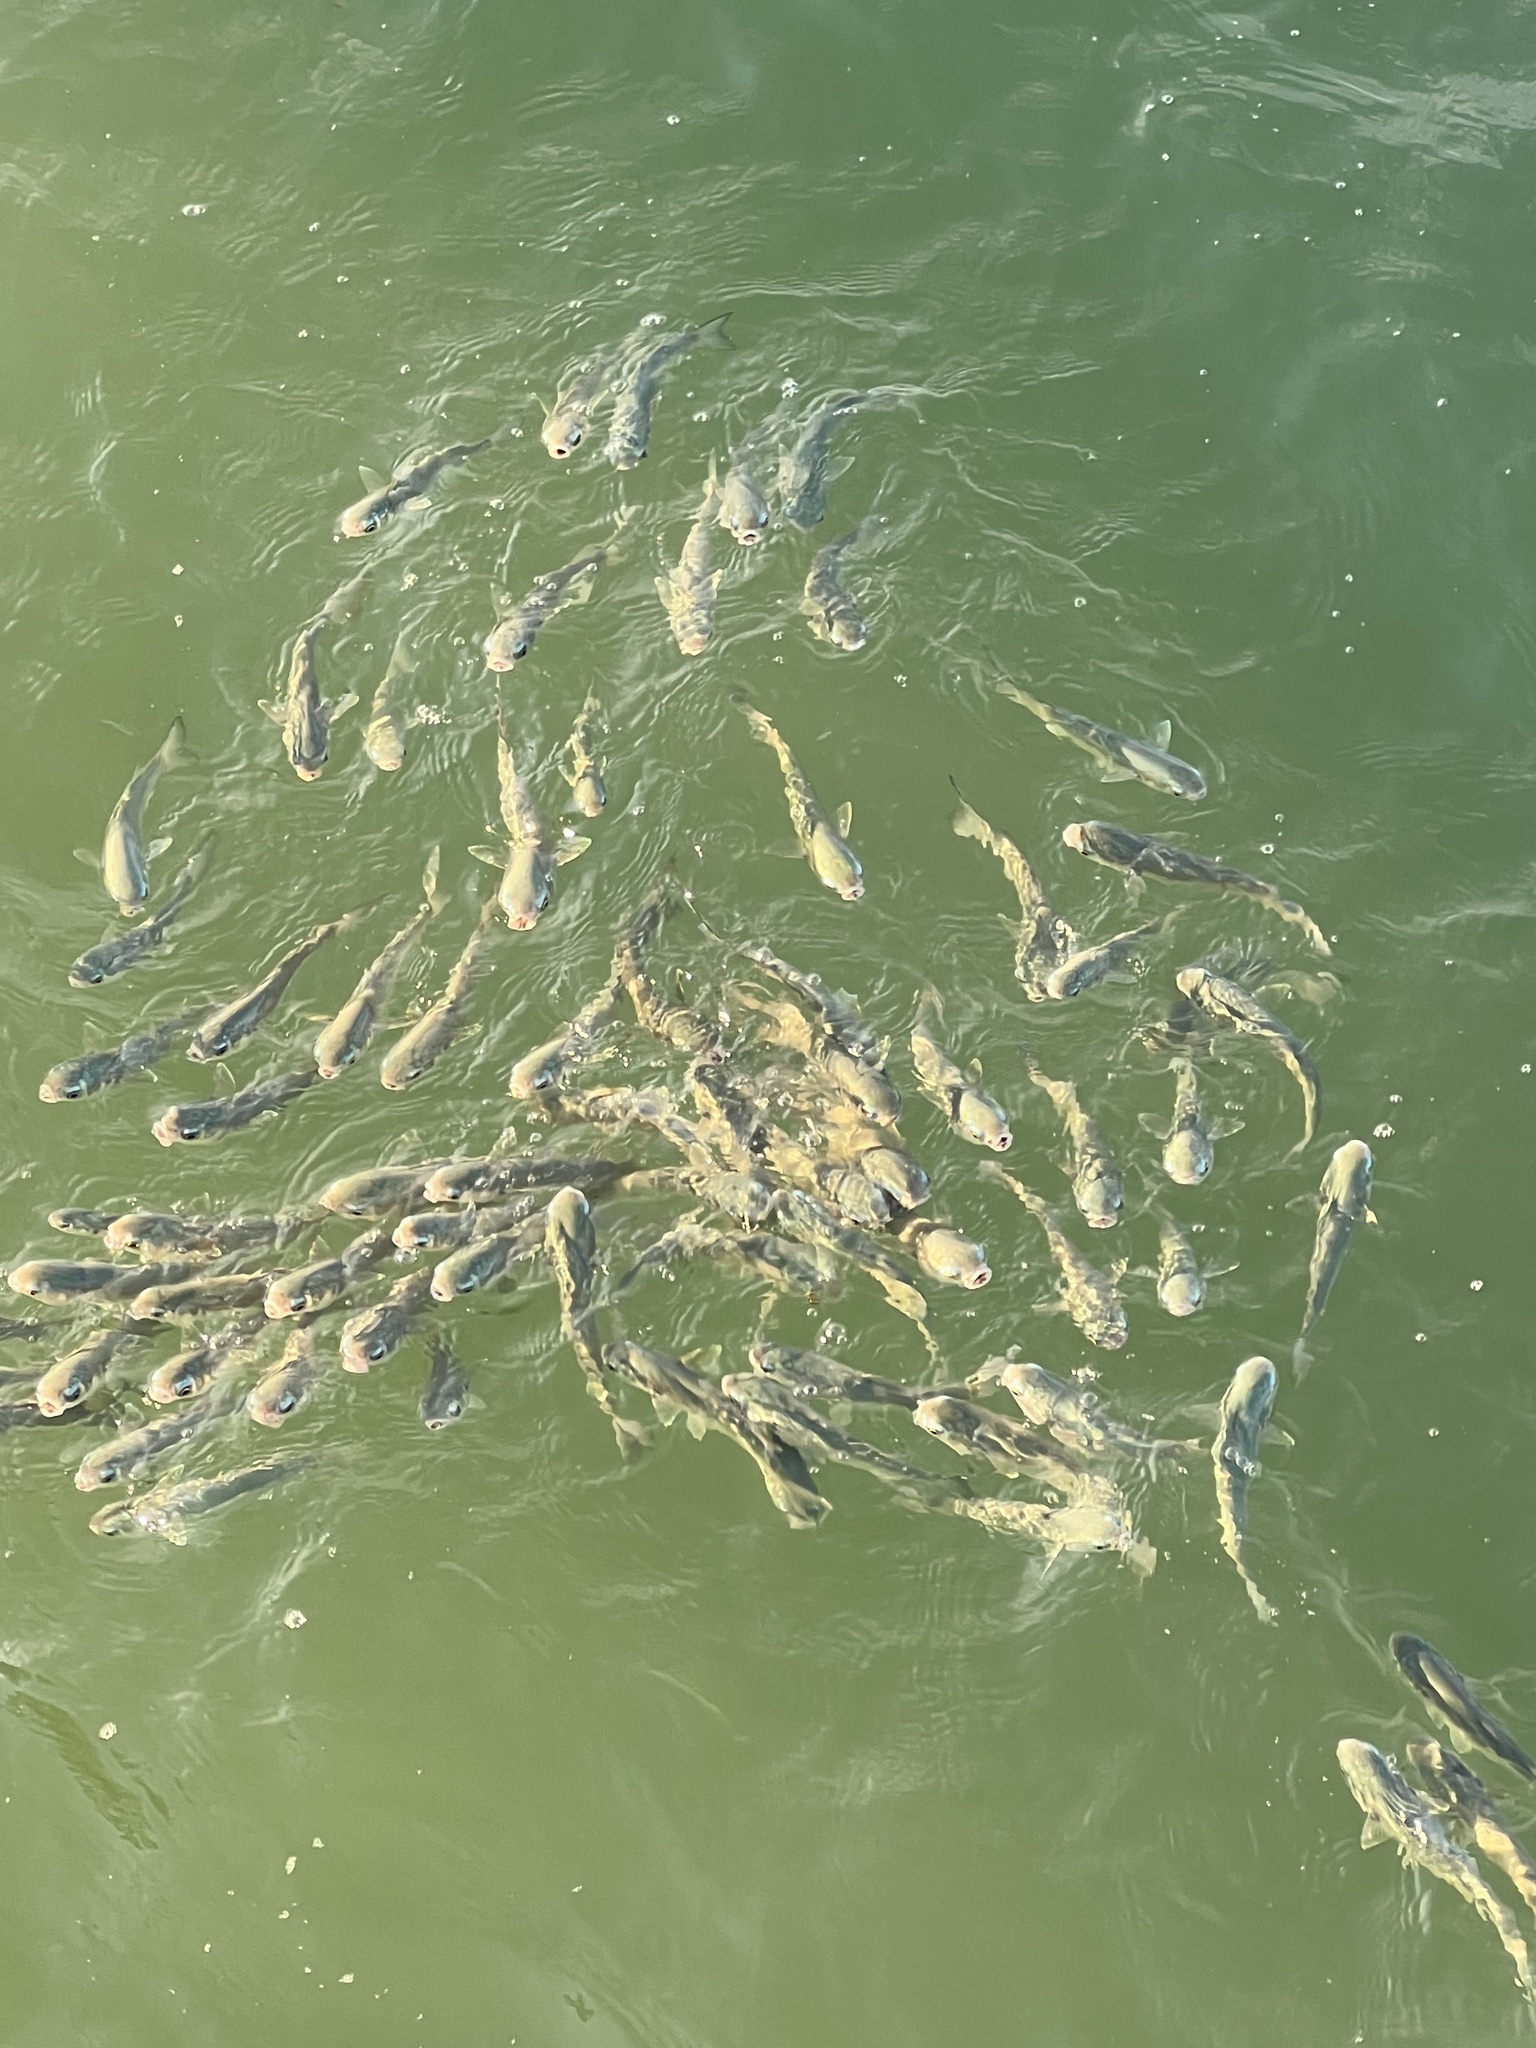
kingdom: Animalia
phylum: Chordata
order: Mugiliformes
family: Mugilidae
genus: Mugil
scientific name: Mugil cephalus
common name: Grey mullet
